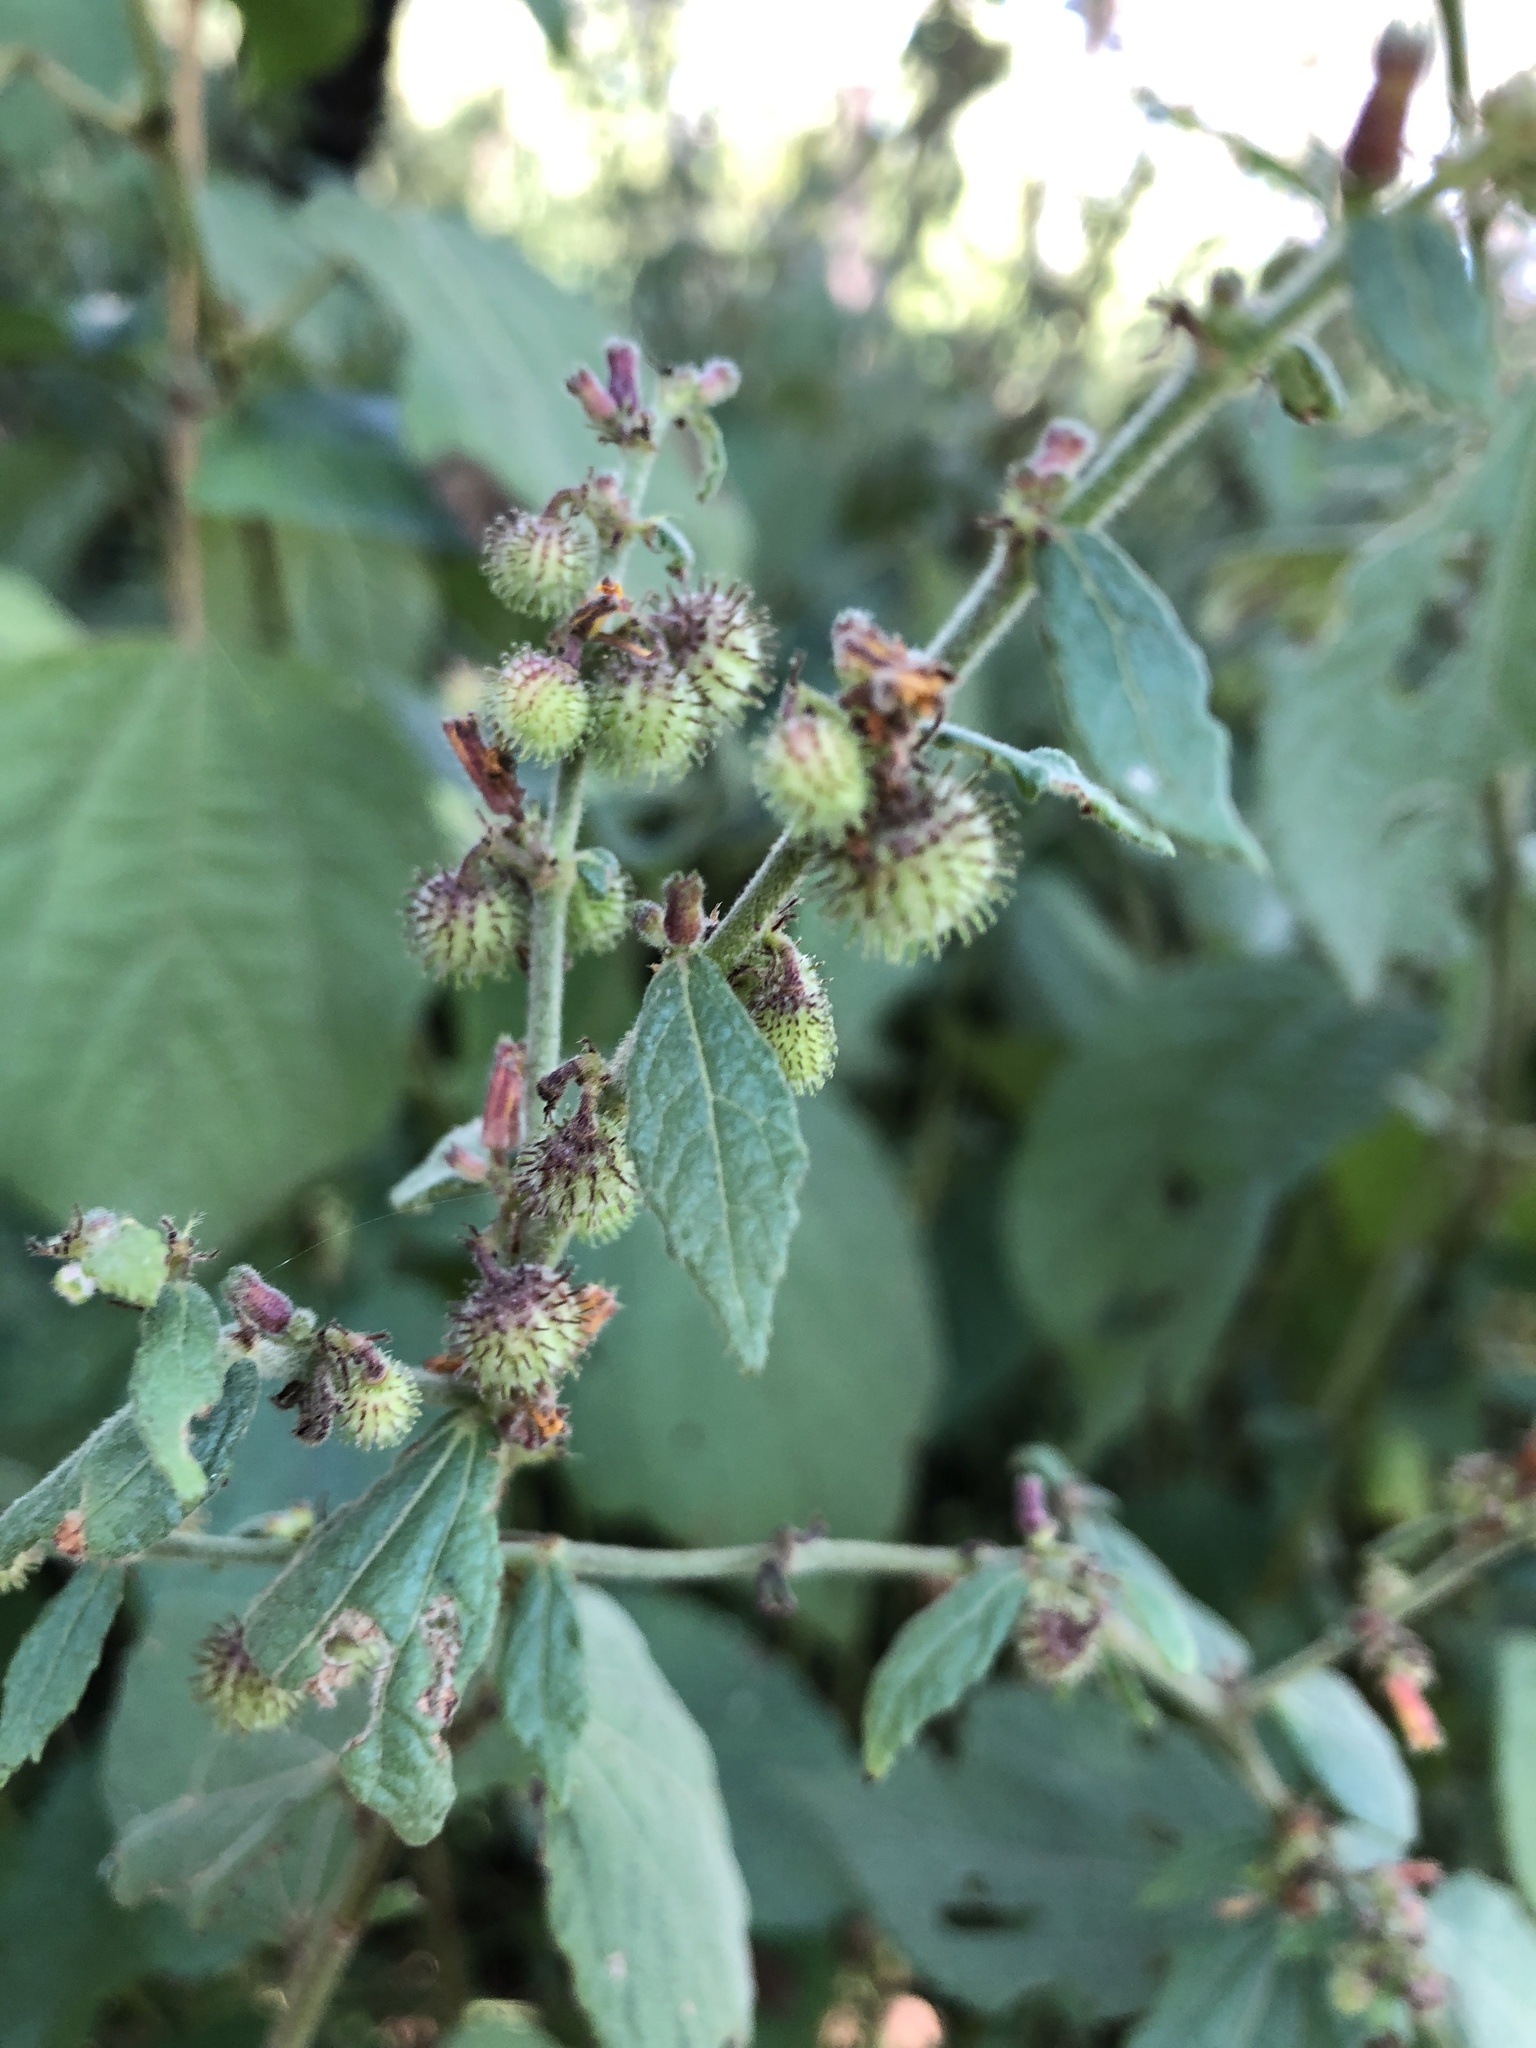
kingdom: Plantae
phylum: Tracheophyta
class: Magnoliopsida
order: Malvales
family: Malvaceae
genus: Triumfetta
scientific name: Triumfetta rhomboidea
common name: Diamond burbark
